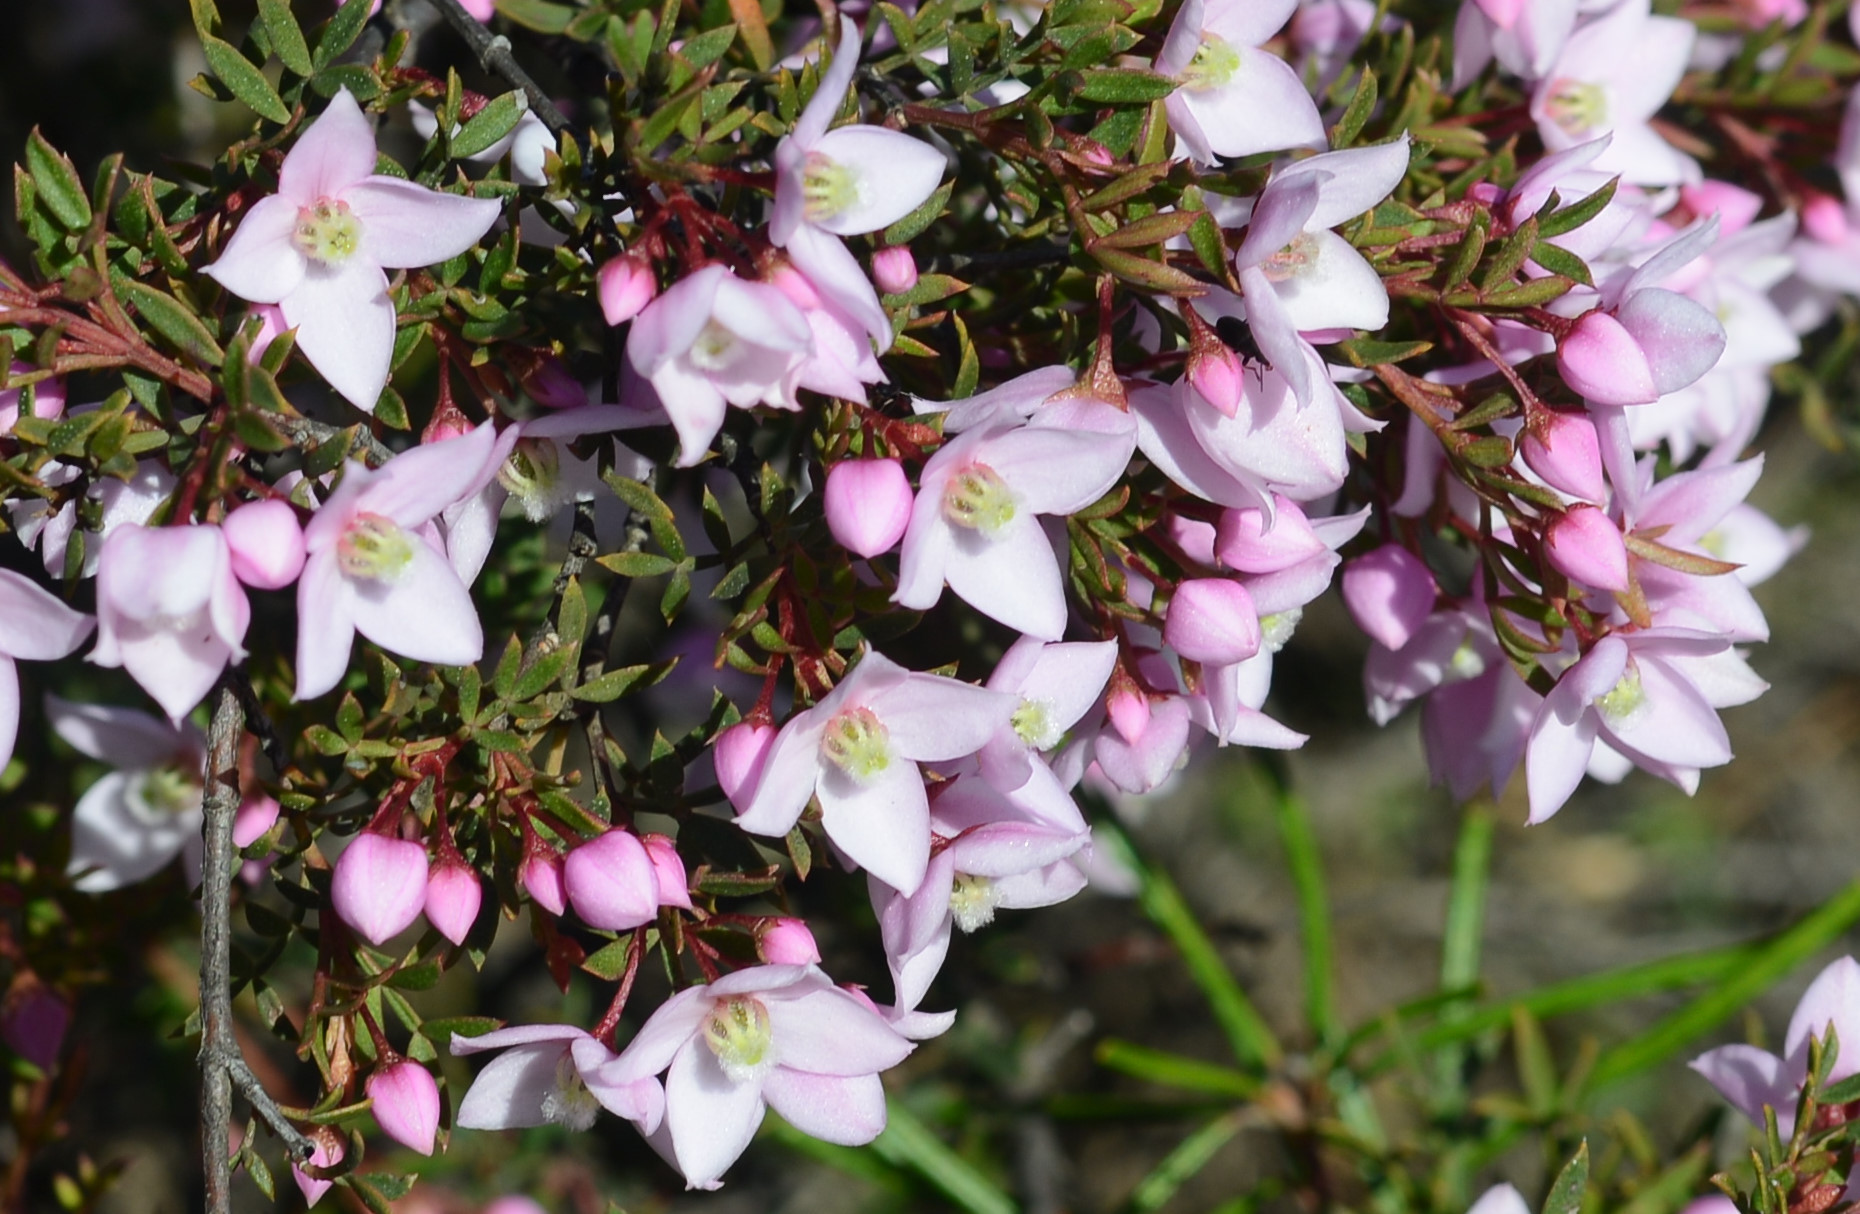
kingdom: Plantae
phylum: Tracheophyta
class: Magnoliopsida
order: Sapindales
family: Rutaceae
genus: Boronia
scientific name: Boronia floribunda
